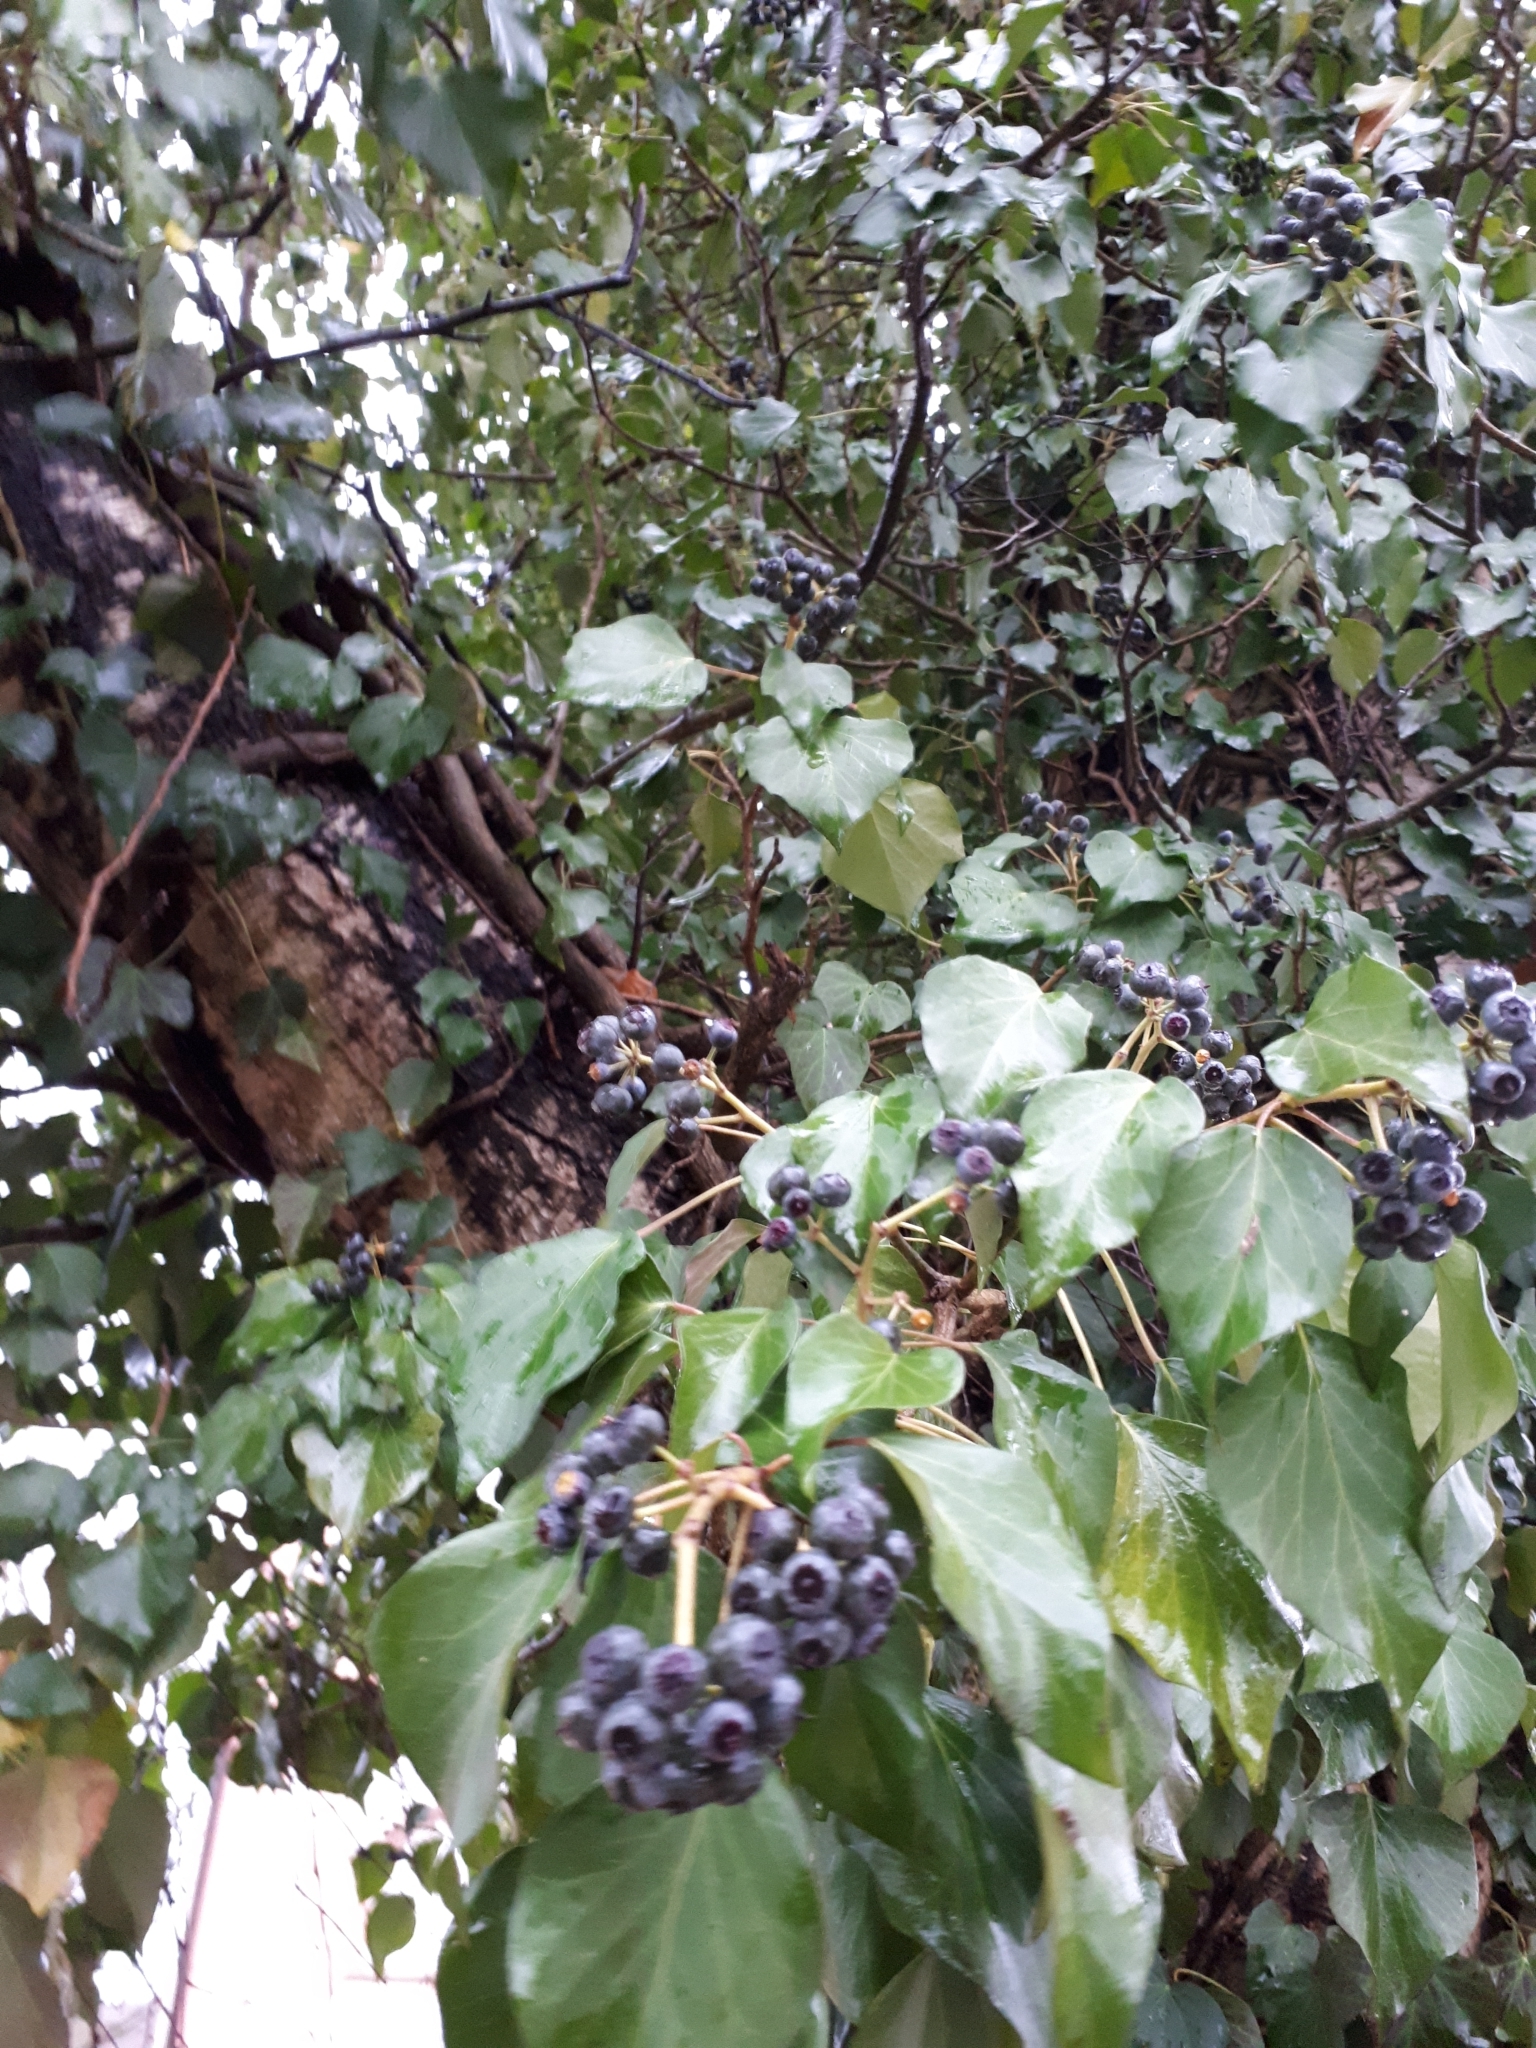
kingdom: Plantae
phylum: Tracheophyta
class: Magnoliopsida
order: Apiales
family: Araliaceae
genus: Hedera
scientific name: Hedera helix
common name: Ivy
